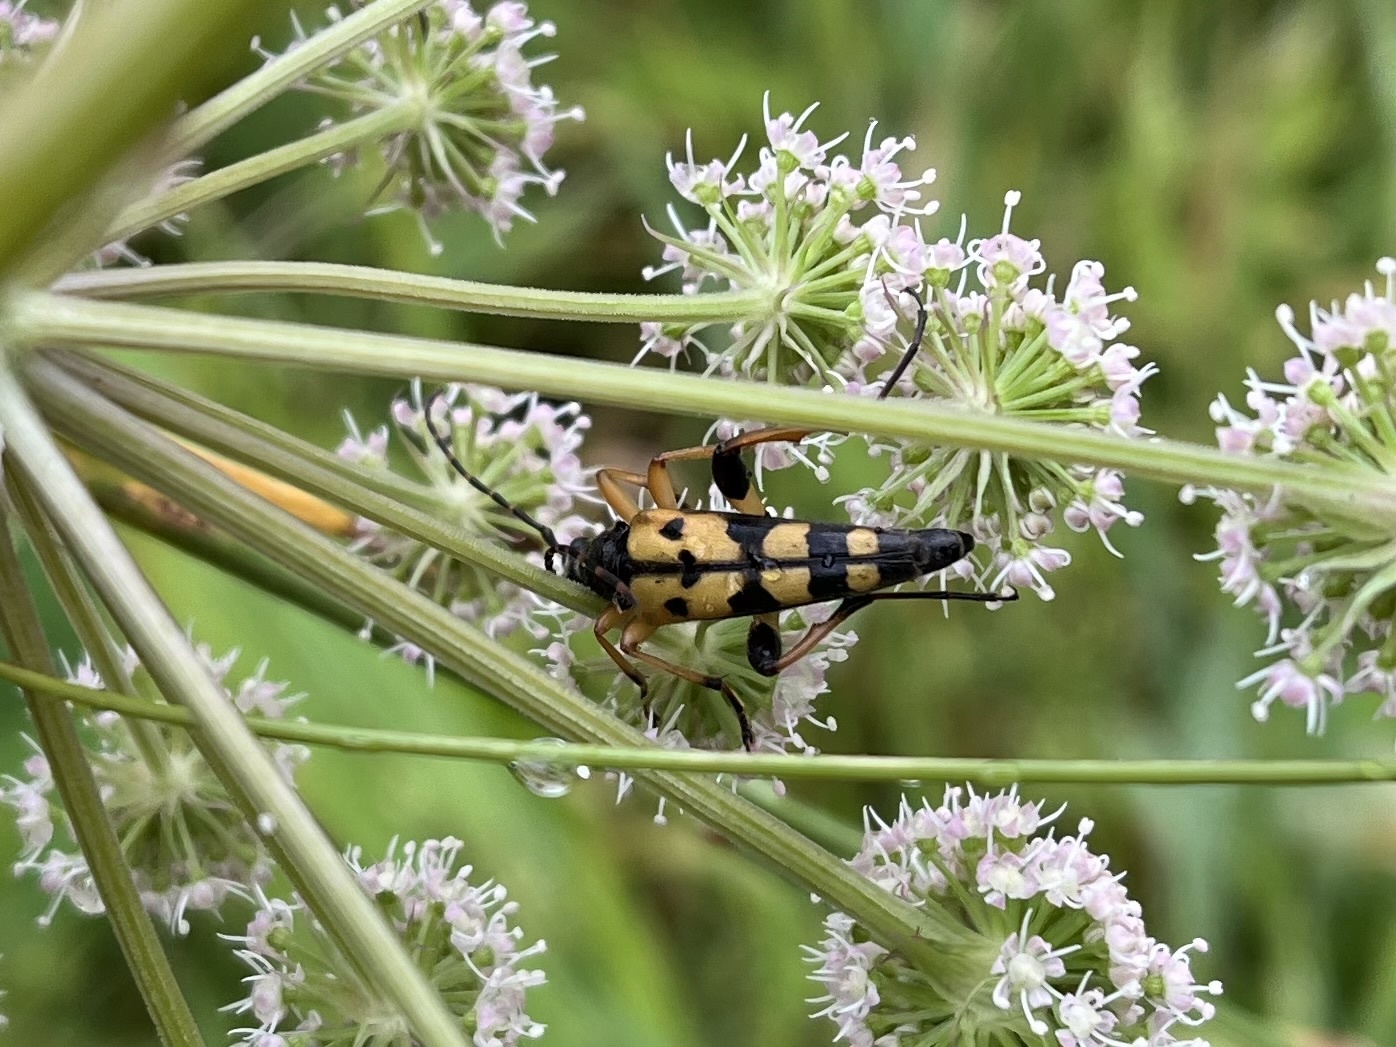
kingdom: Animalia
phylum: Arthropoda
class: Insecta
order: Coleoptera
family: Cerambycidae
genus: Rutpela
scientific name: Rutpela maculata
